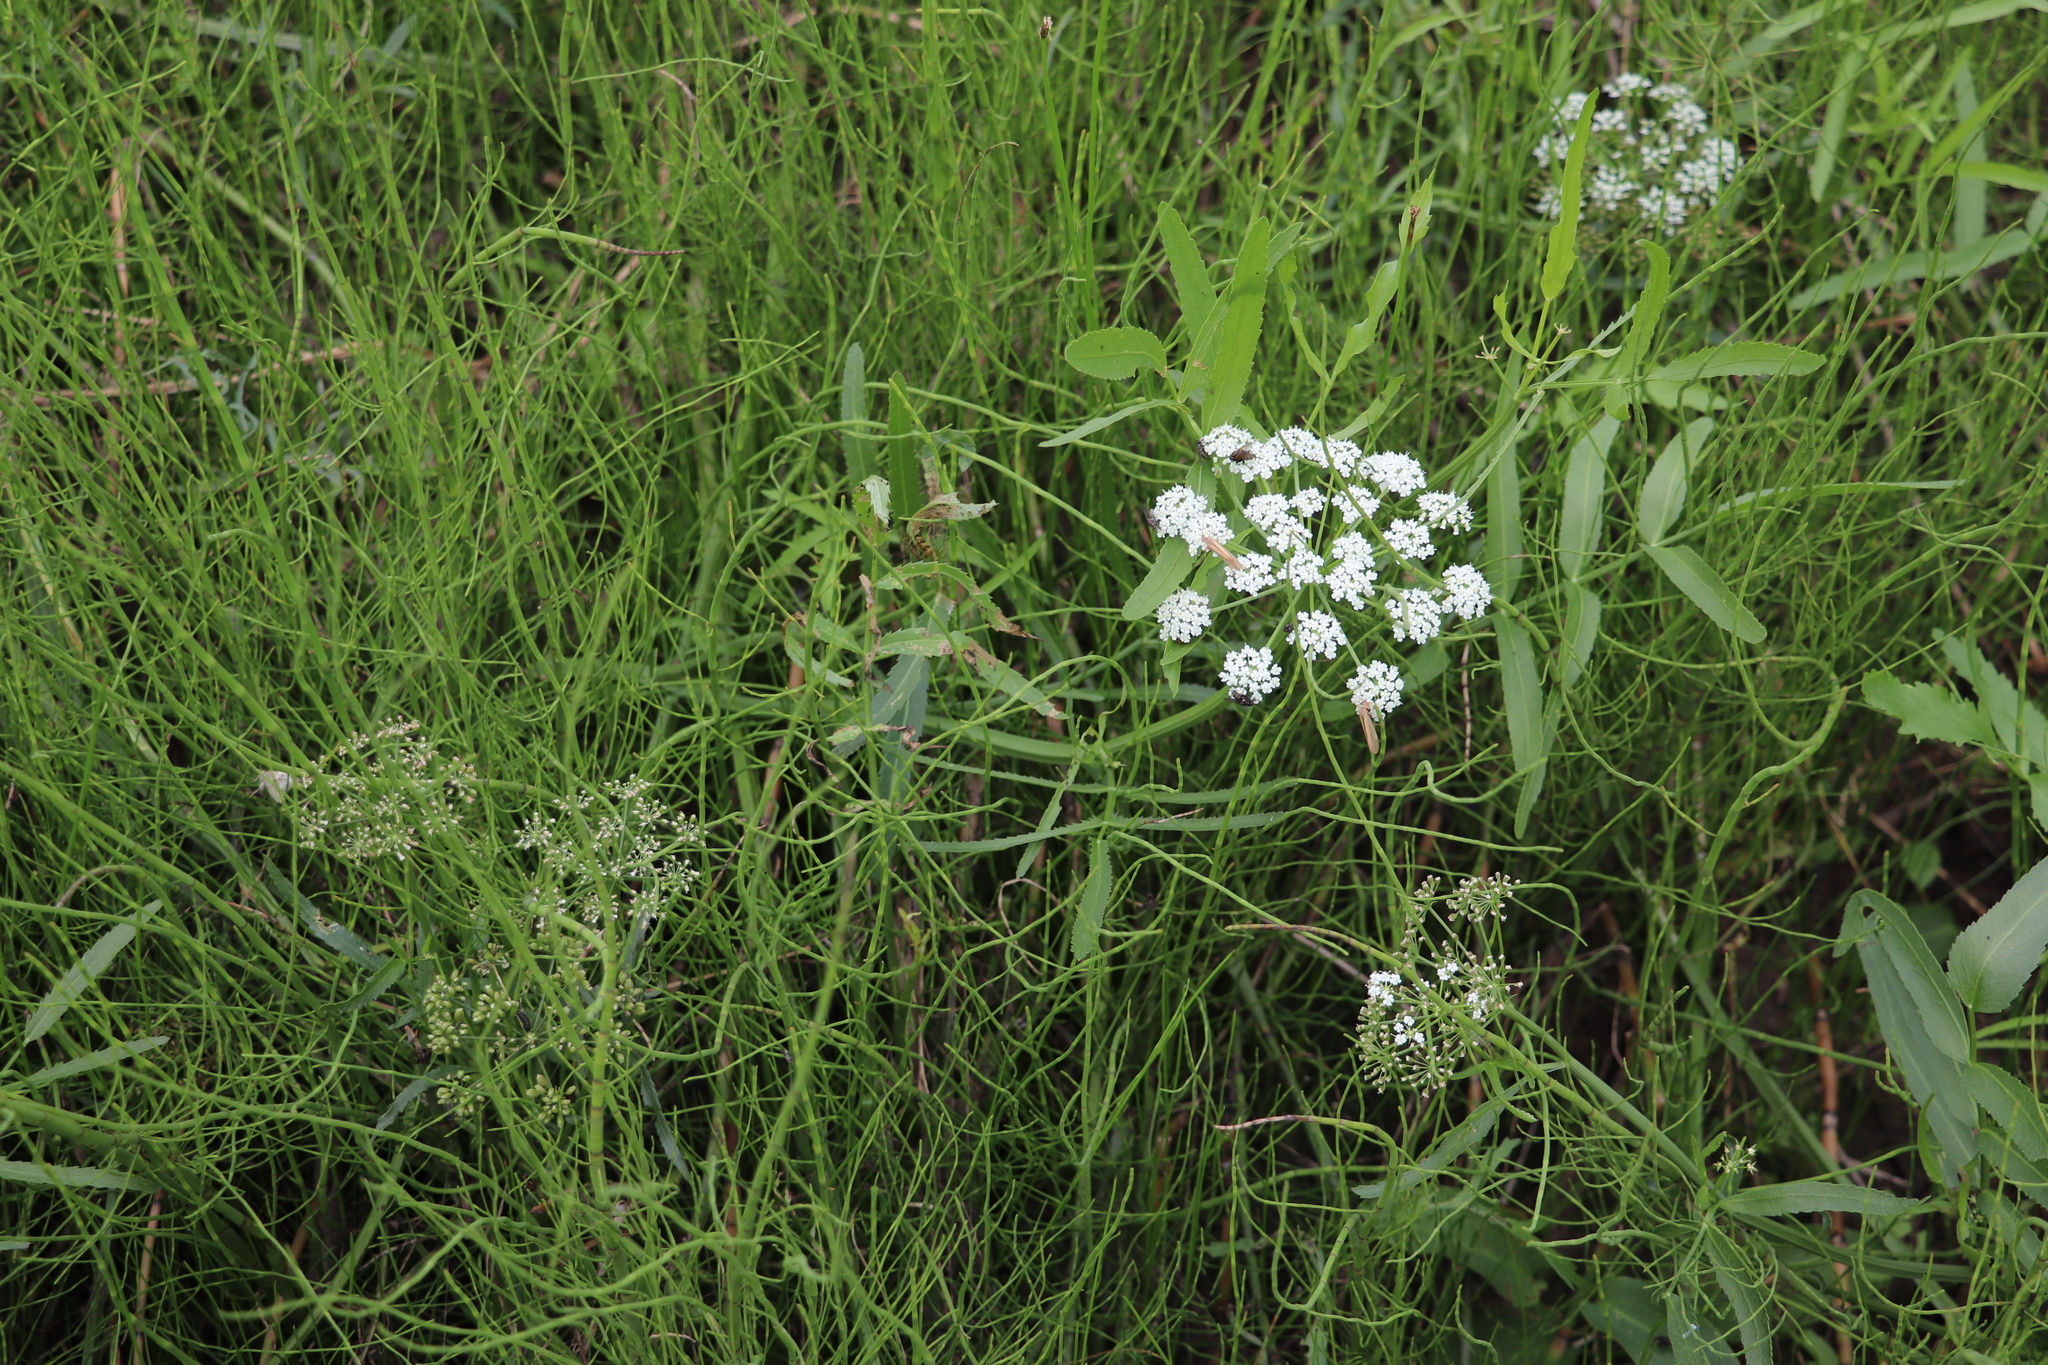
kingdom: Plantae
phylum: Tracheophyta
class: Magnoliopsida
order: Apiales
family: Apiaceae
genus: Sium
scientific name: Sium latifolium
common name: Greater water-parsnip
